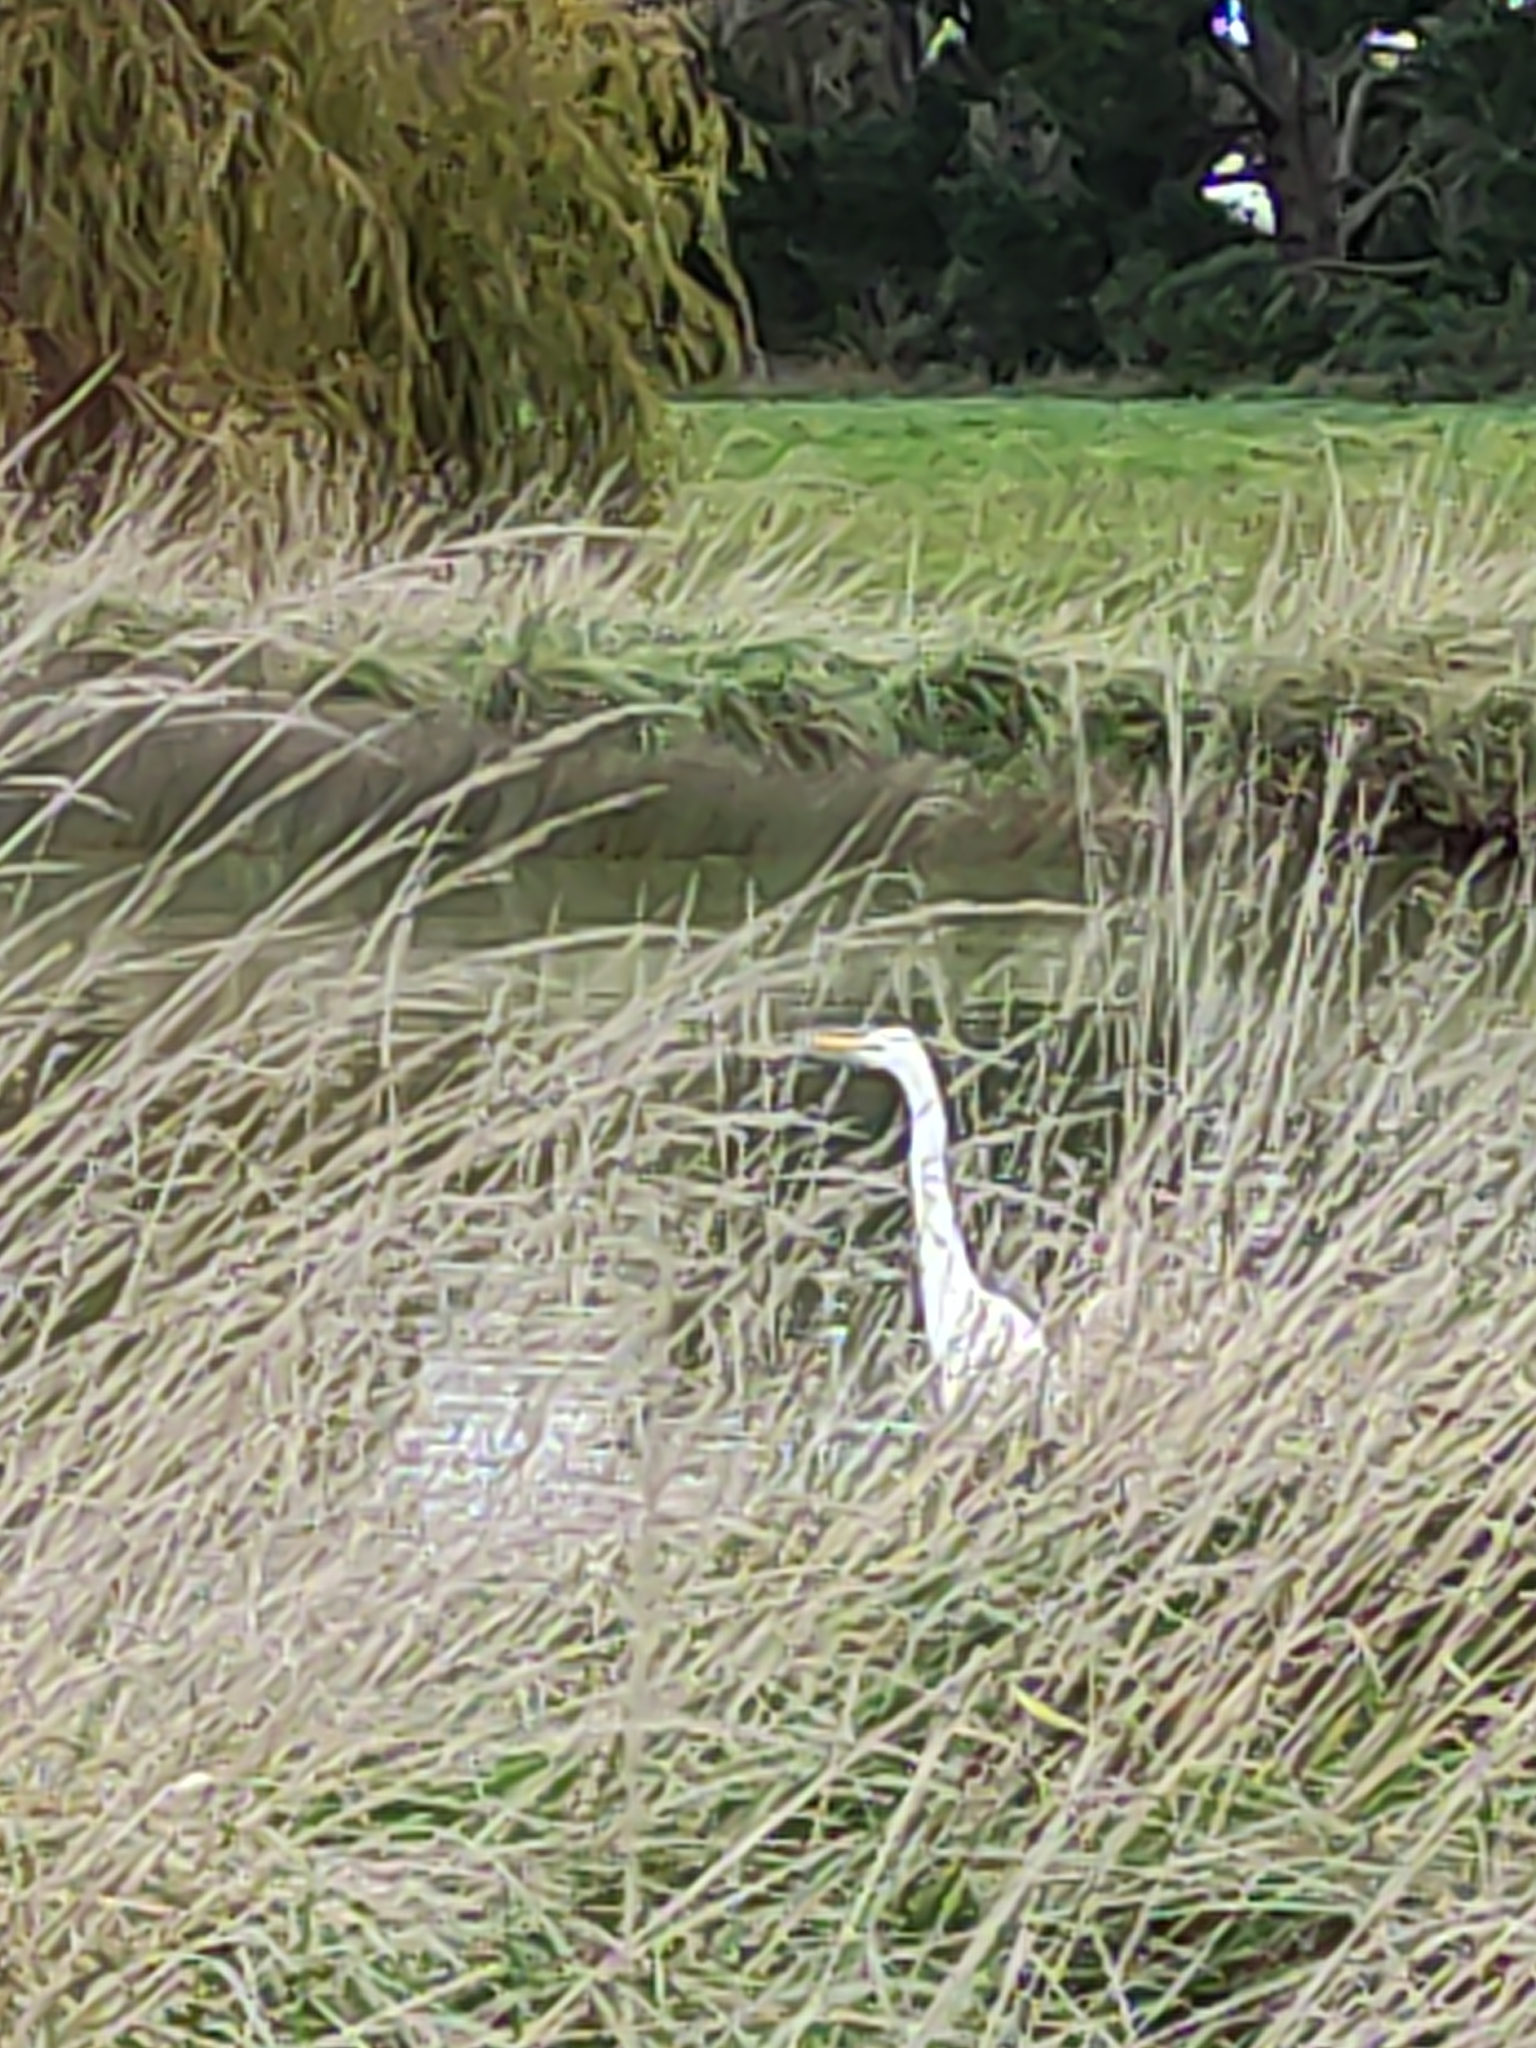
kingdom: Animalia
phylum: Chordata
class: Aves
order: Pelecaniformes
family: Ardeidae
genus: Ardea
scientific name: Ardea modesta
